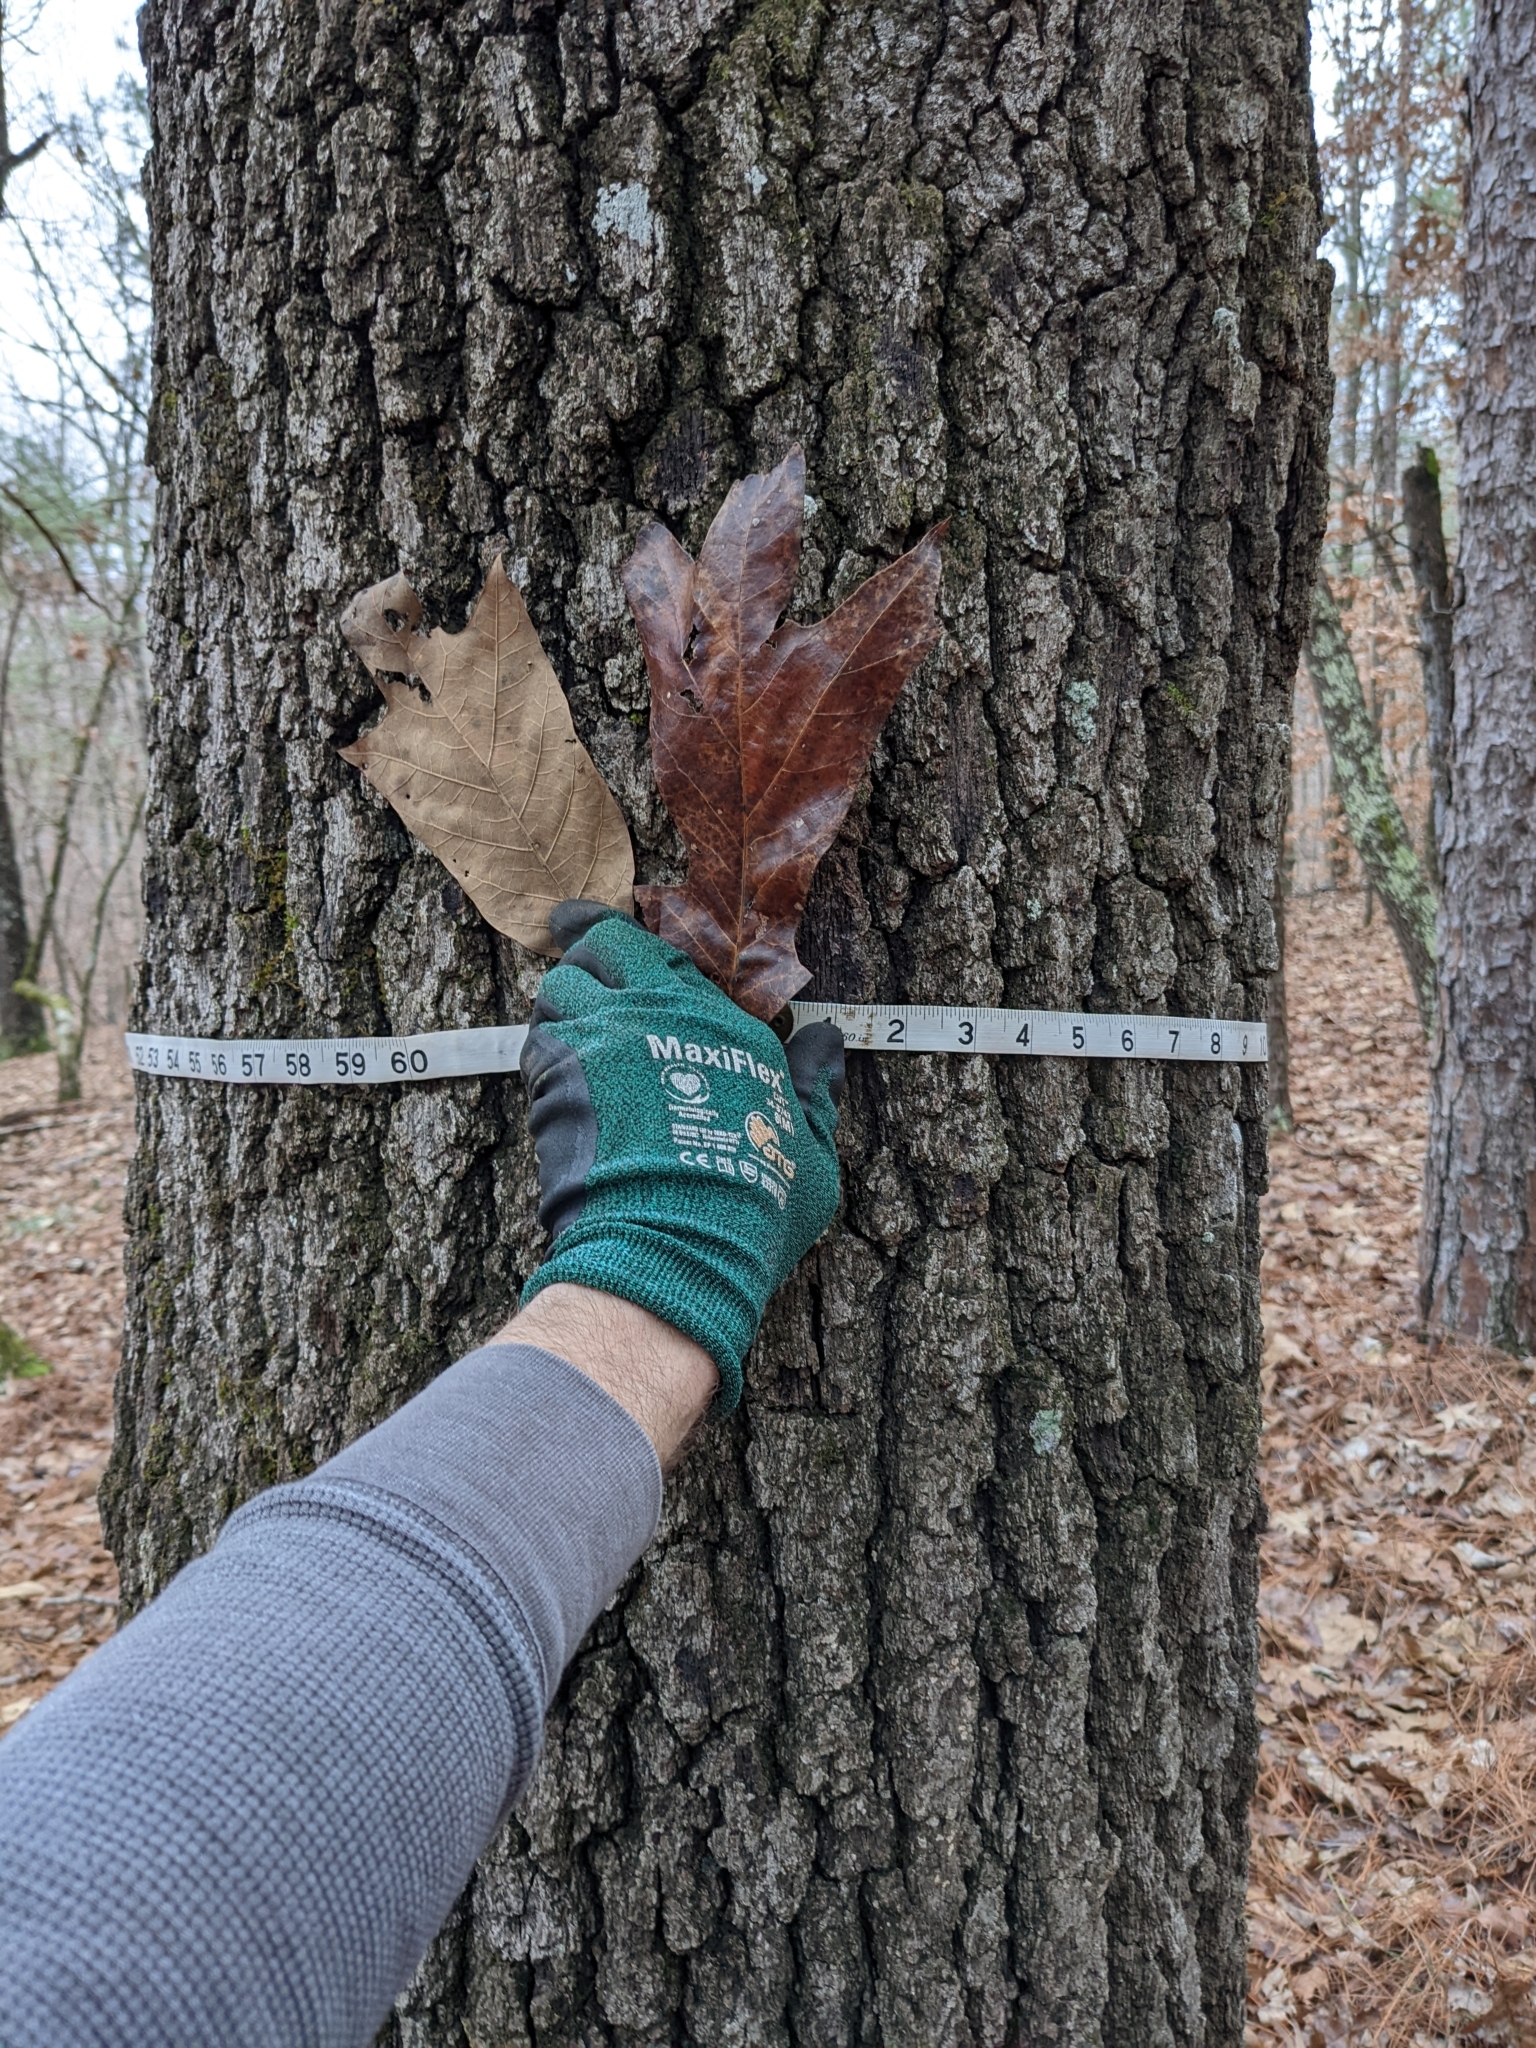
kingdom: Plantae
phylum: Tracheophyta
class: Magnoliopsida
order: Fagales
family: Fagaceae
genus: Quercus
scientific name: Quercus falcata
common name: Southern red oak
